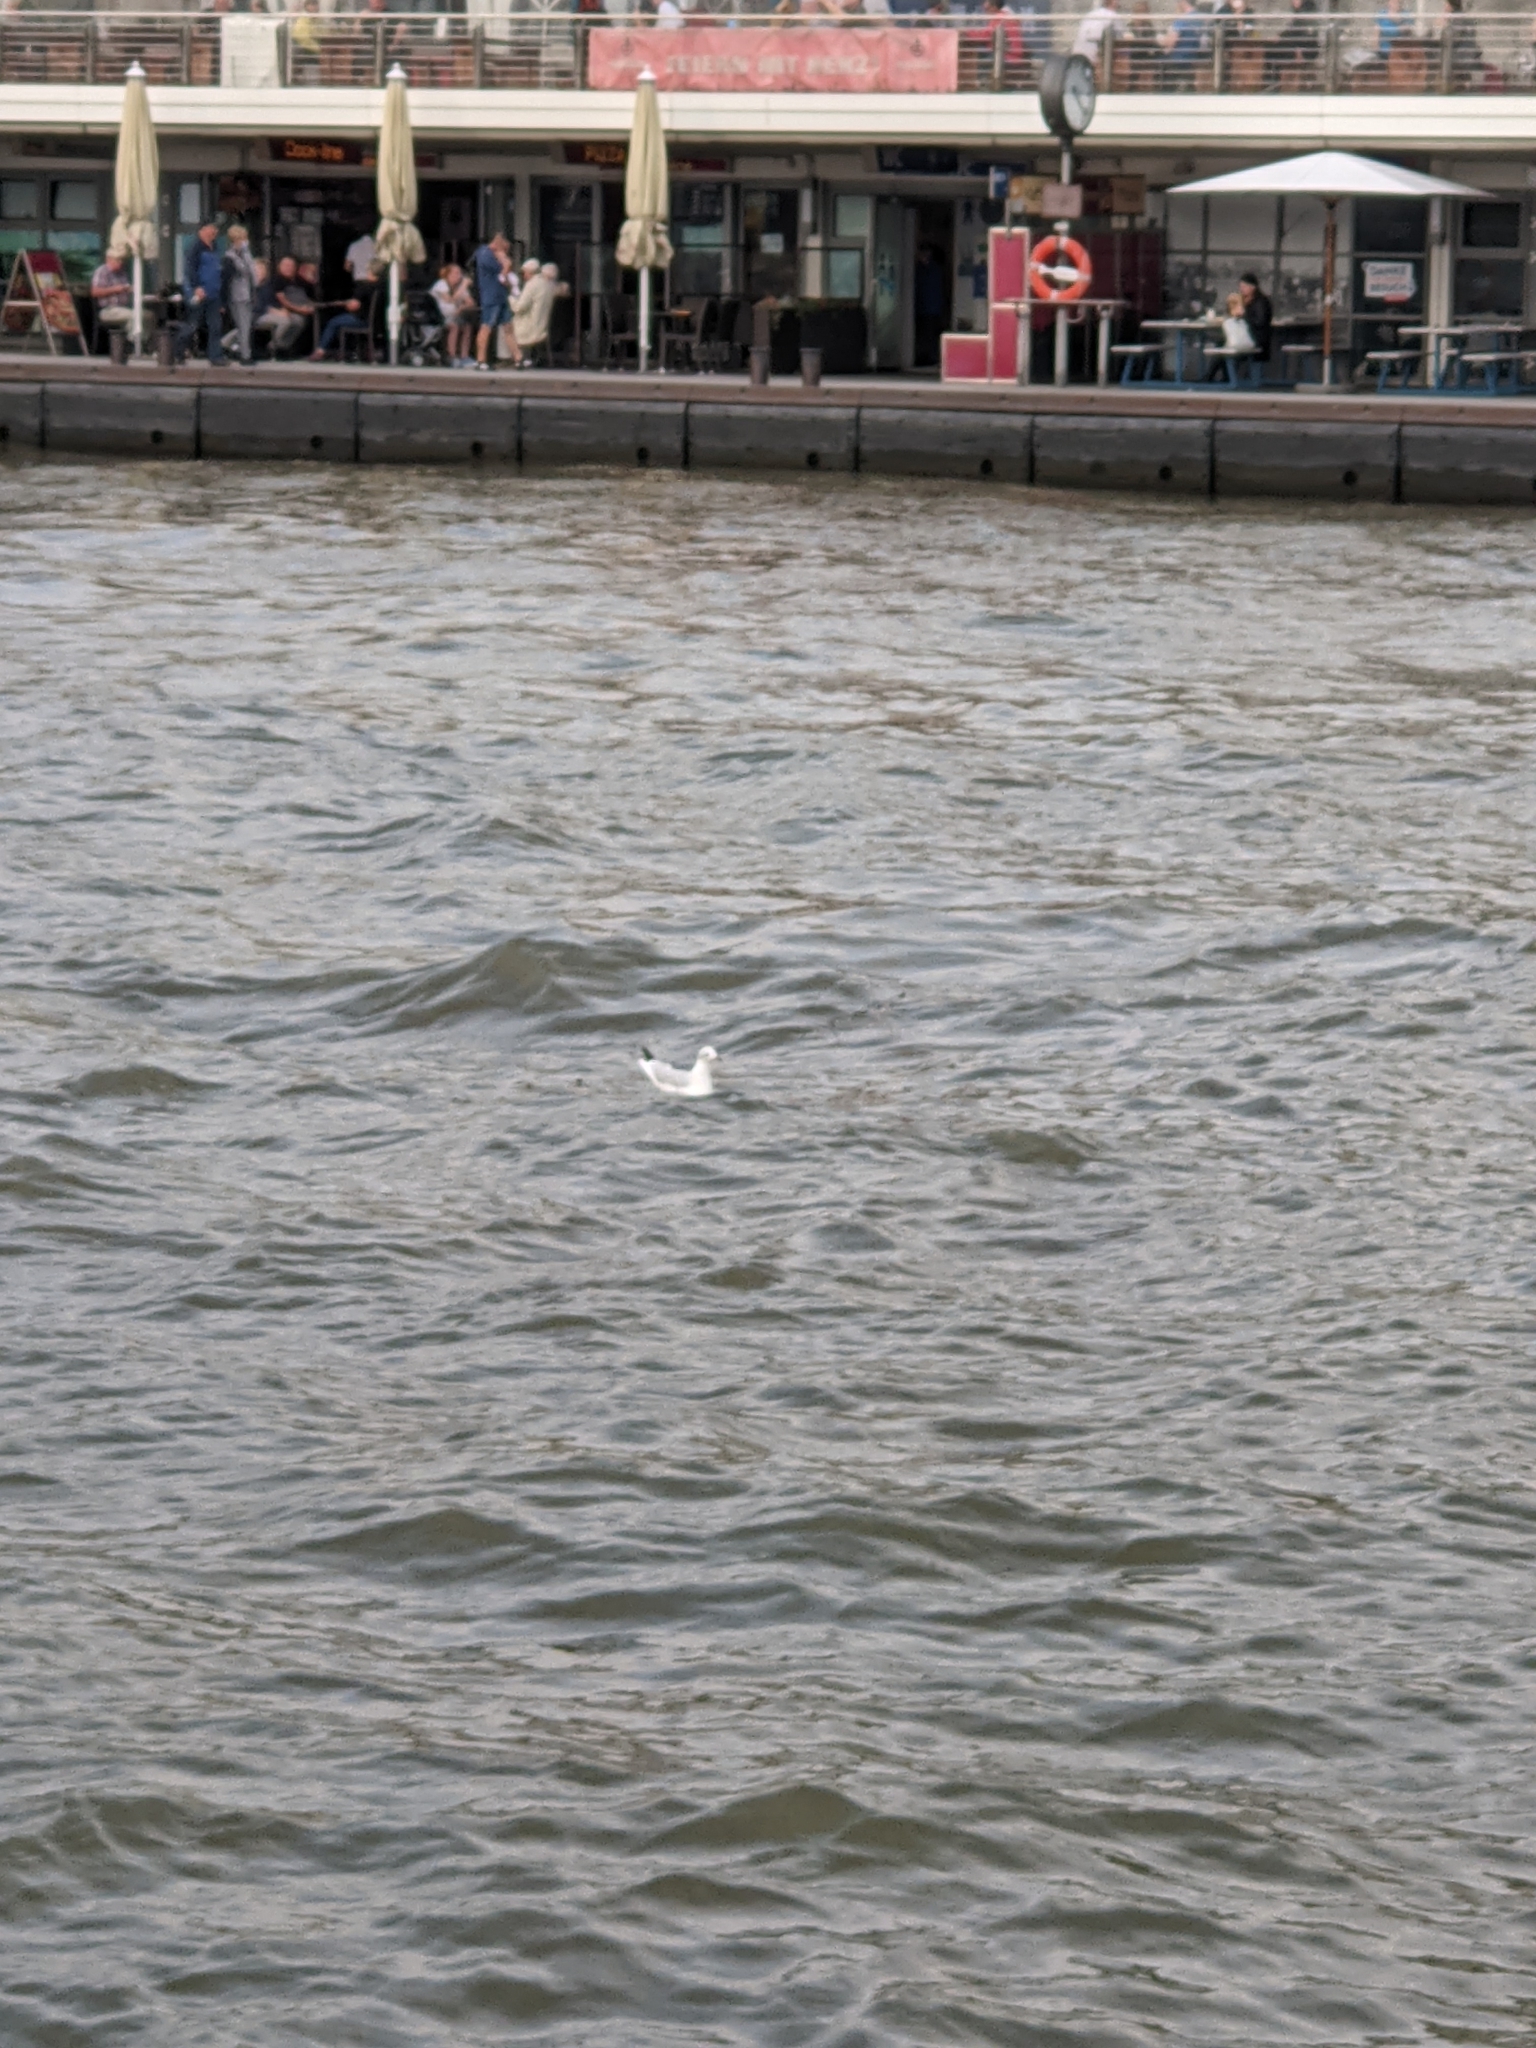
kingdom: Animalia
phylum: Chordata
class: Aves
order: Charadriiformes
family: Laridae
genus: Chroicocephalus
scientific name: Chroicocephalus ridibundus
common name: Black-headed gull
